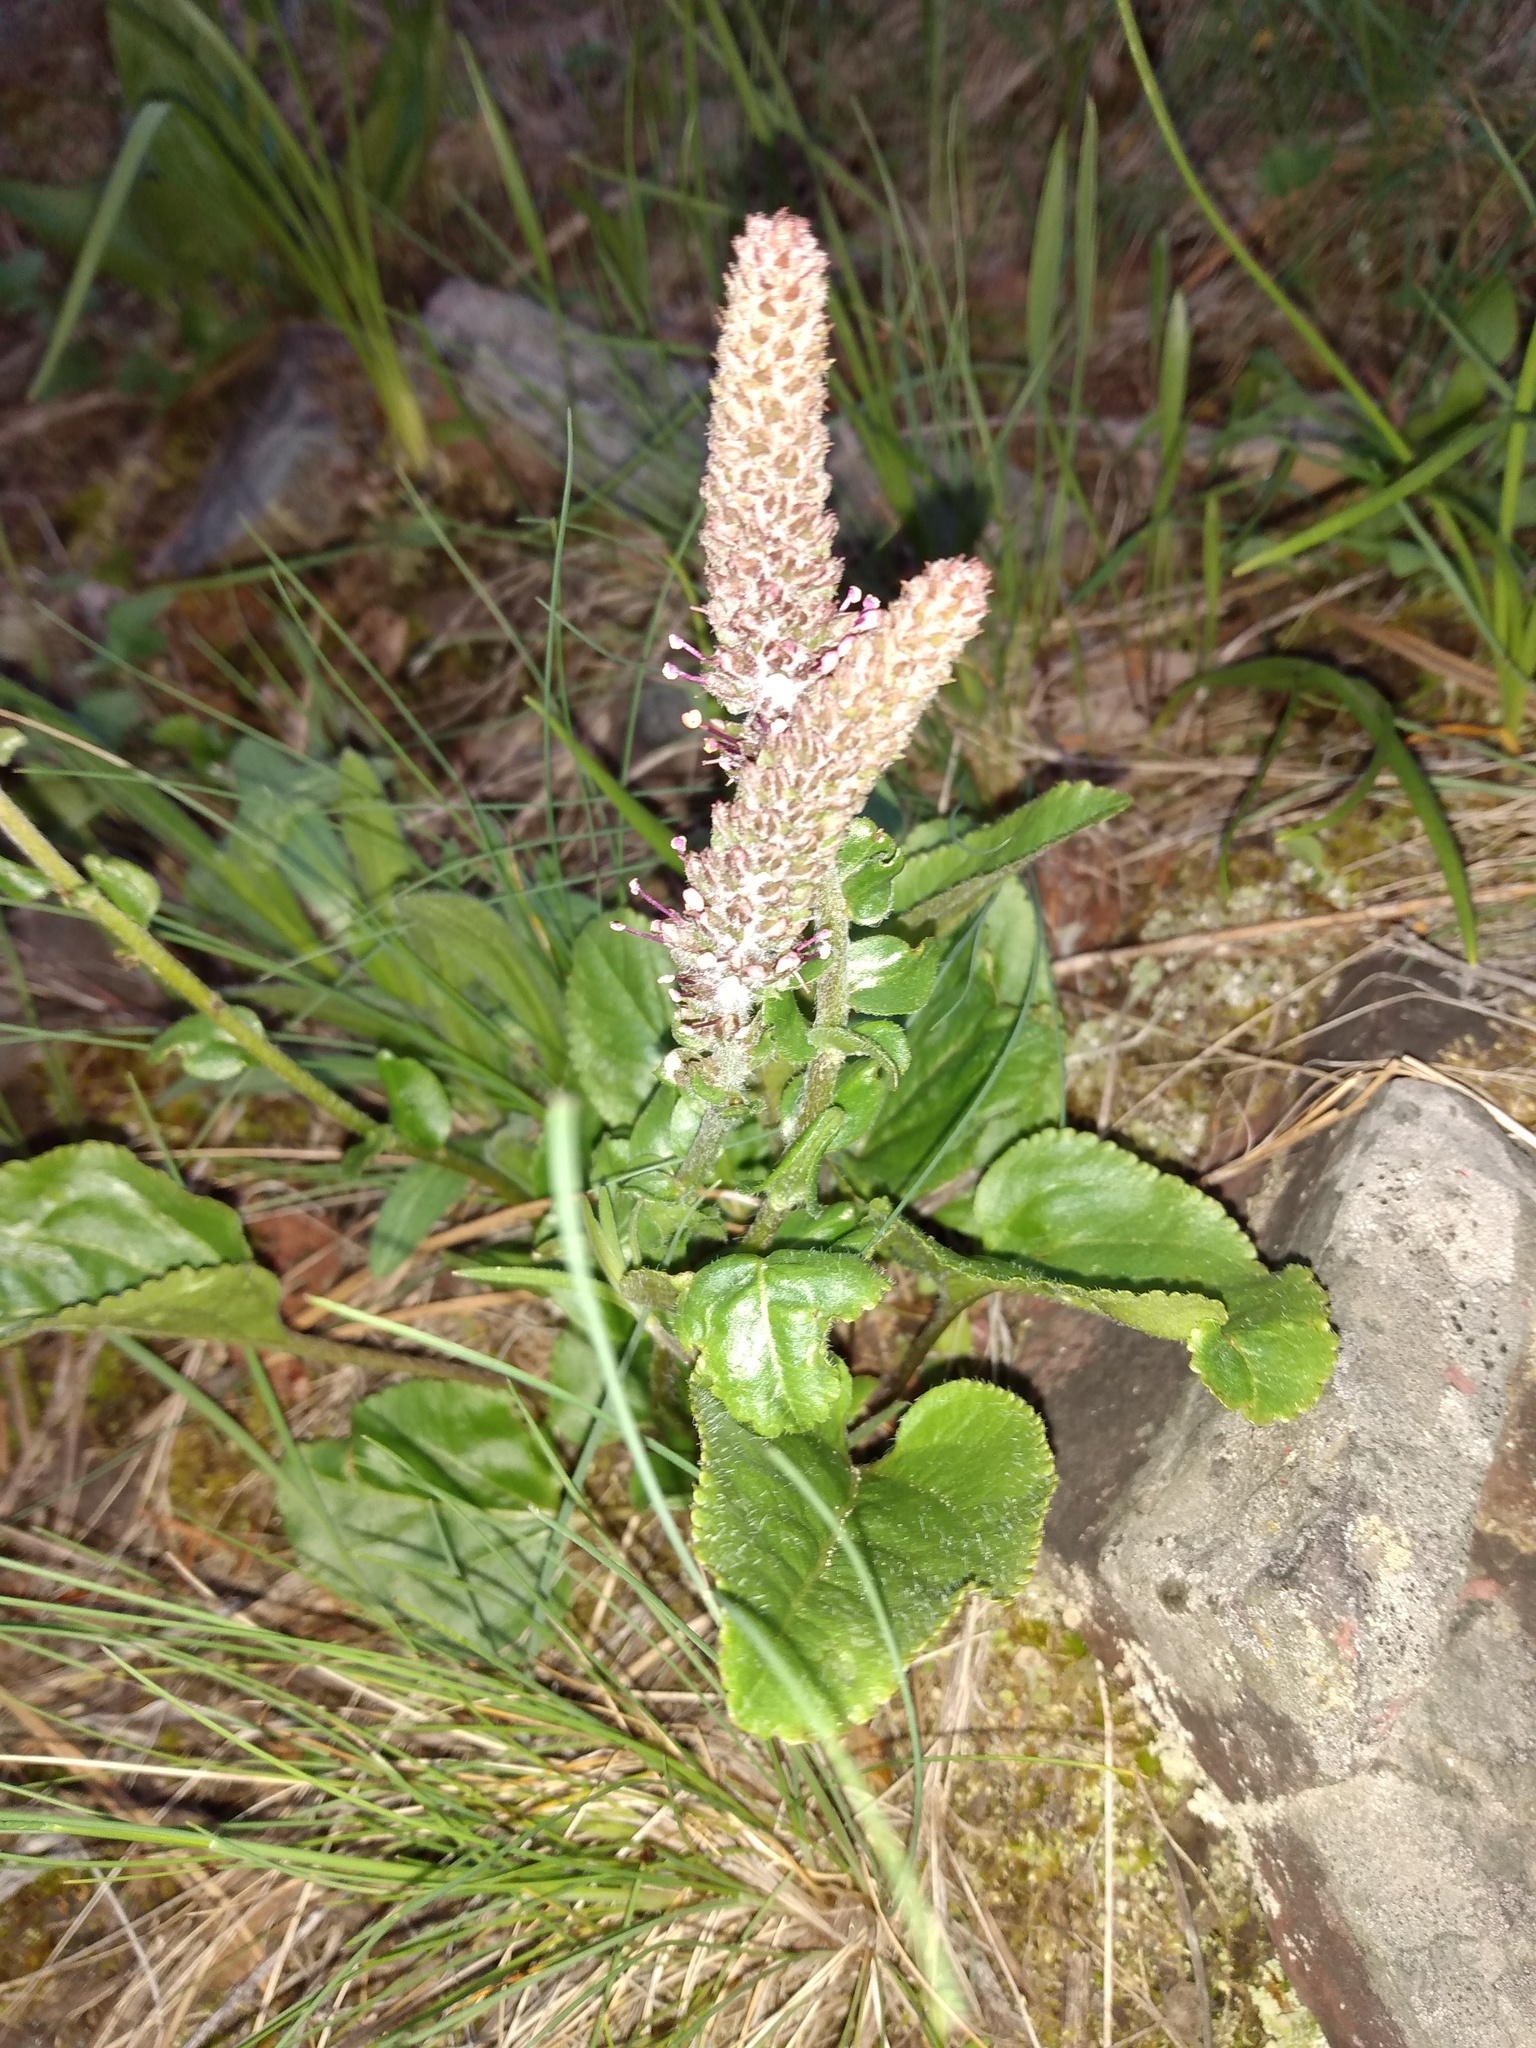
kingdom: Plantae
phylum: Tracheophyta
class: Magnoliopsida
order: Lamiales
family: Plantaginaceae
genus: Synthyris
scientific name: Synthyris rubra
